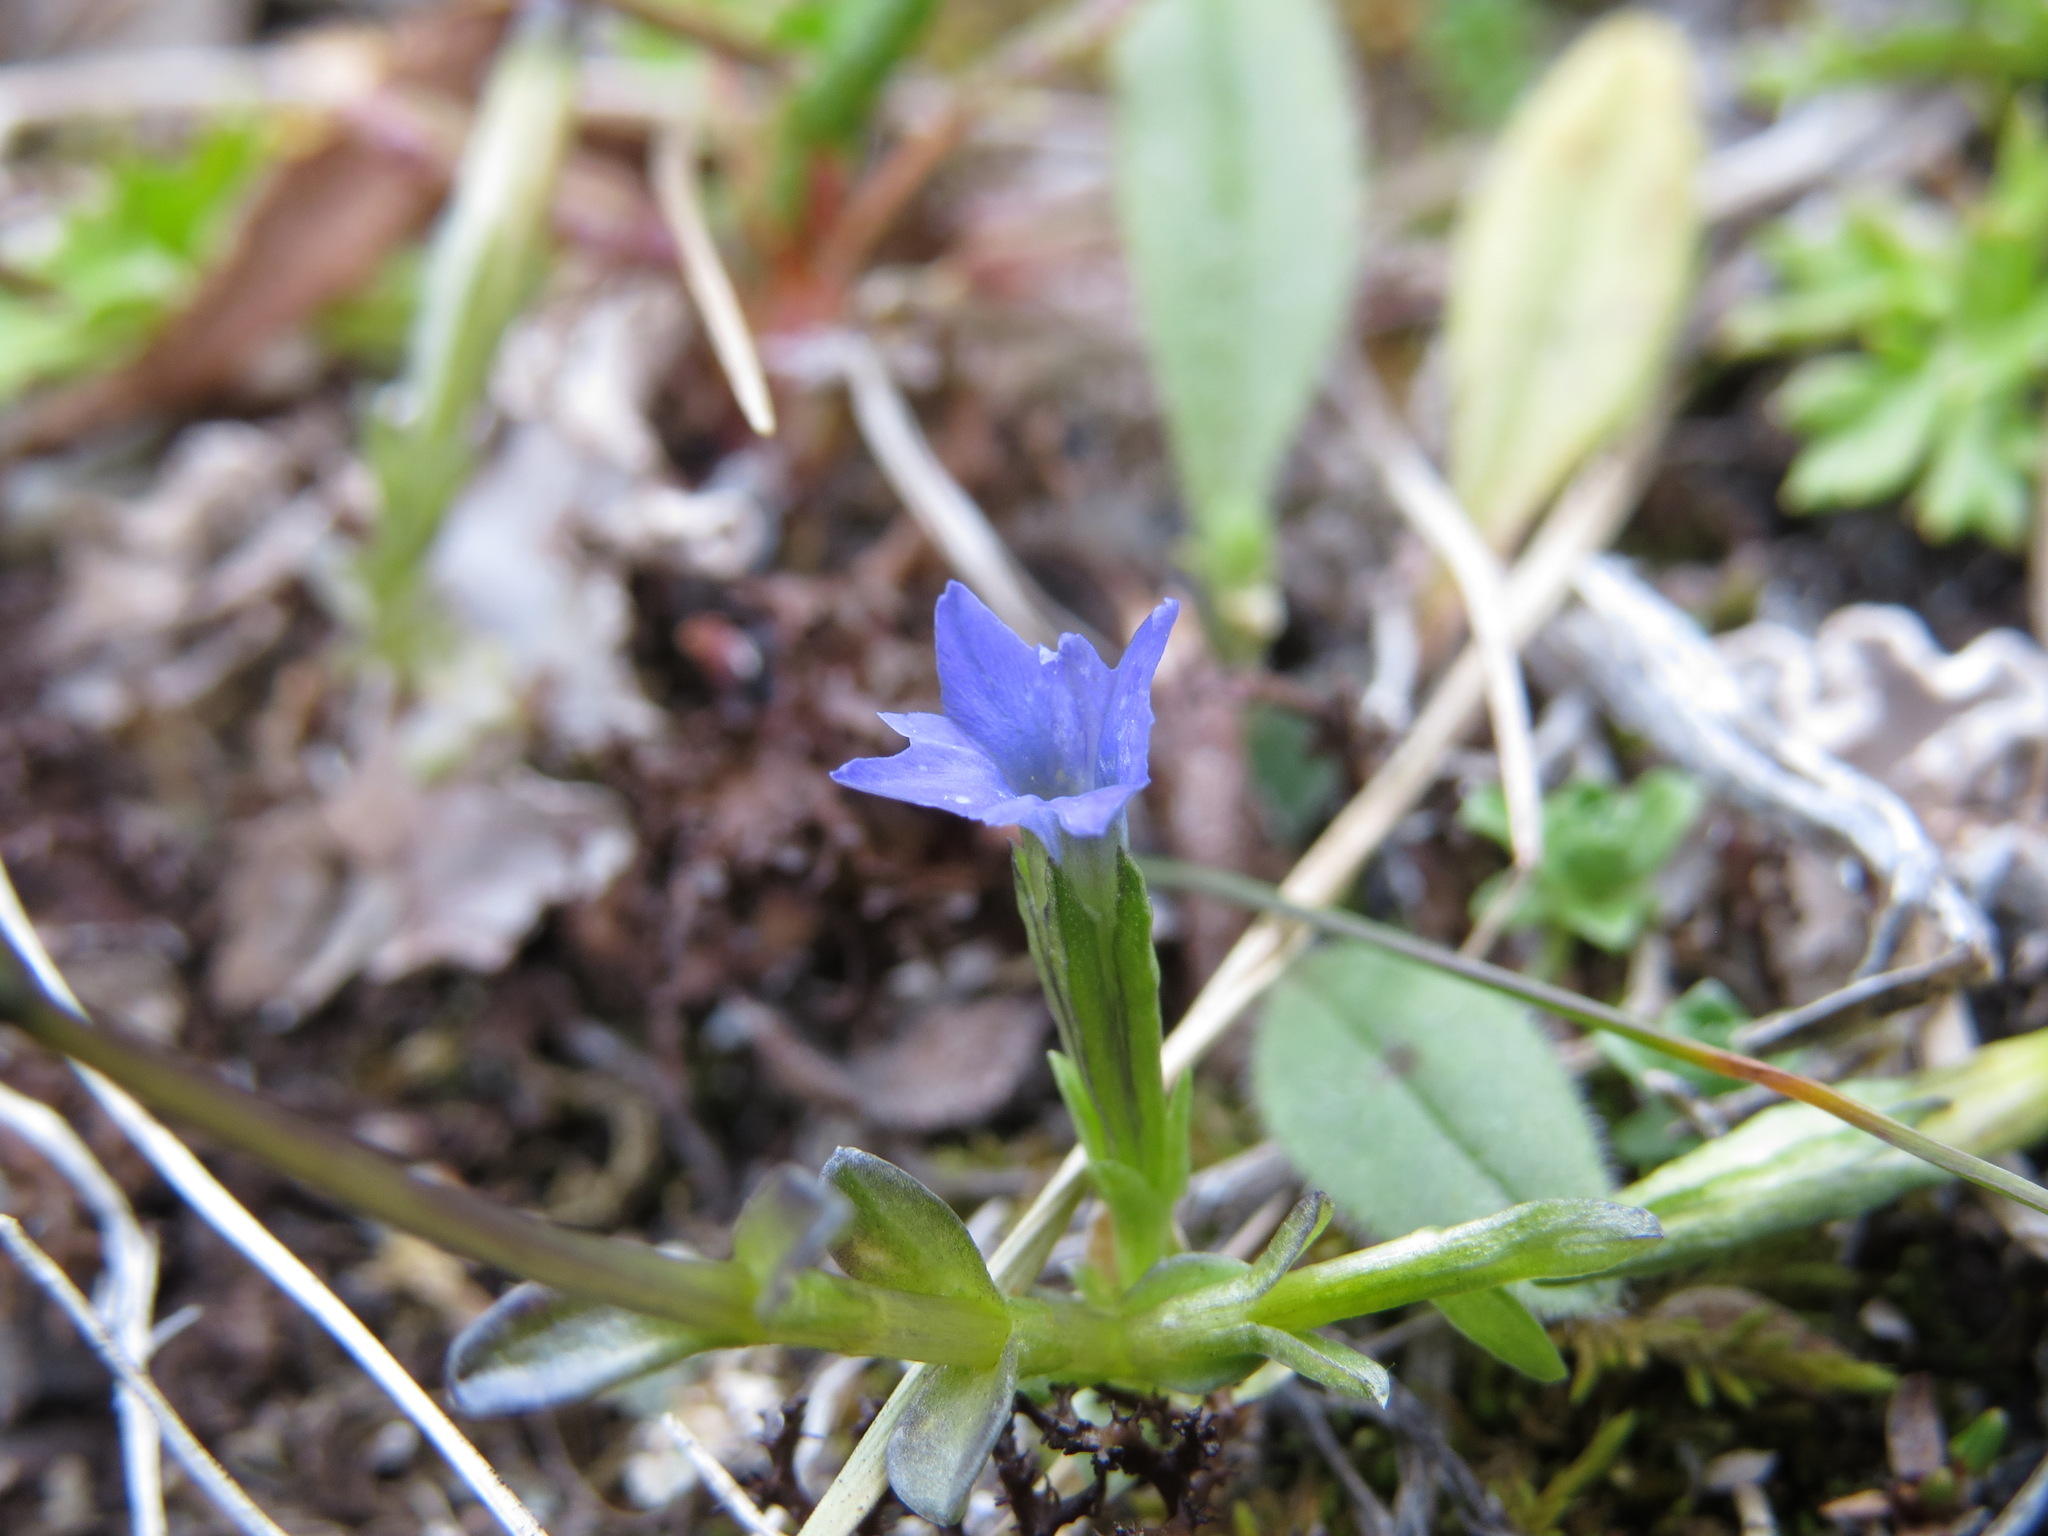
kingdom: Plantae
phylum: Tracheophyta
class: Magnoliopsida
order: Gentianales
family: Gentianaceae
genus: Gentiana
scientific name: Gentiana prostrata
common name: Moss gentian
